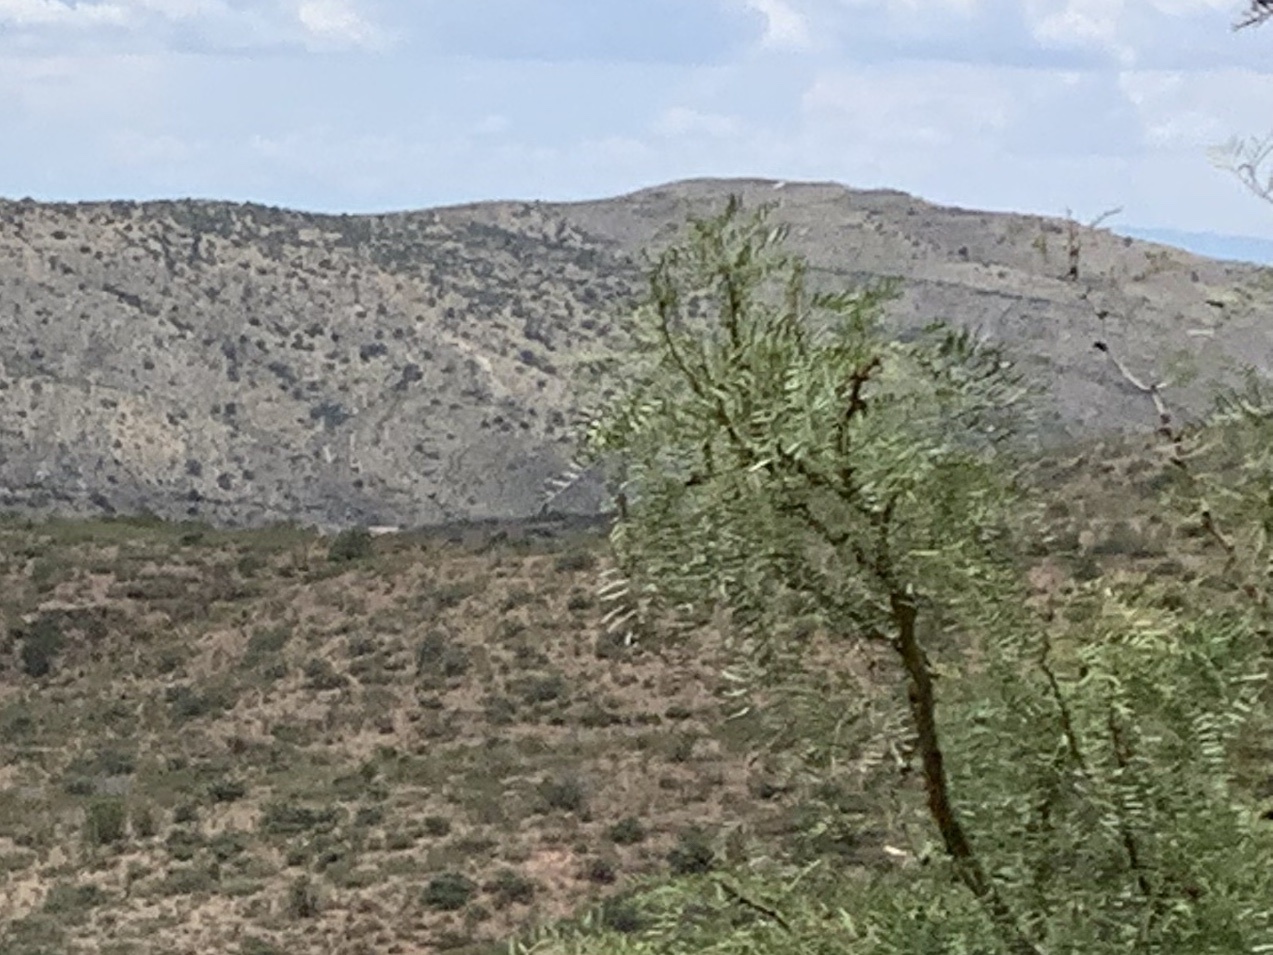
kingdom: Plantae
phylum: Tracheophyta
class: Magnoliopsida
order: Fabales
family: Fabaceae
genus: Prosopis
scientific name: Prosopis glandulosa
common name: Honey mesquite
